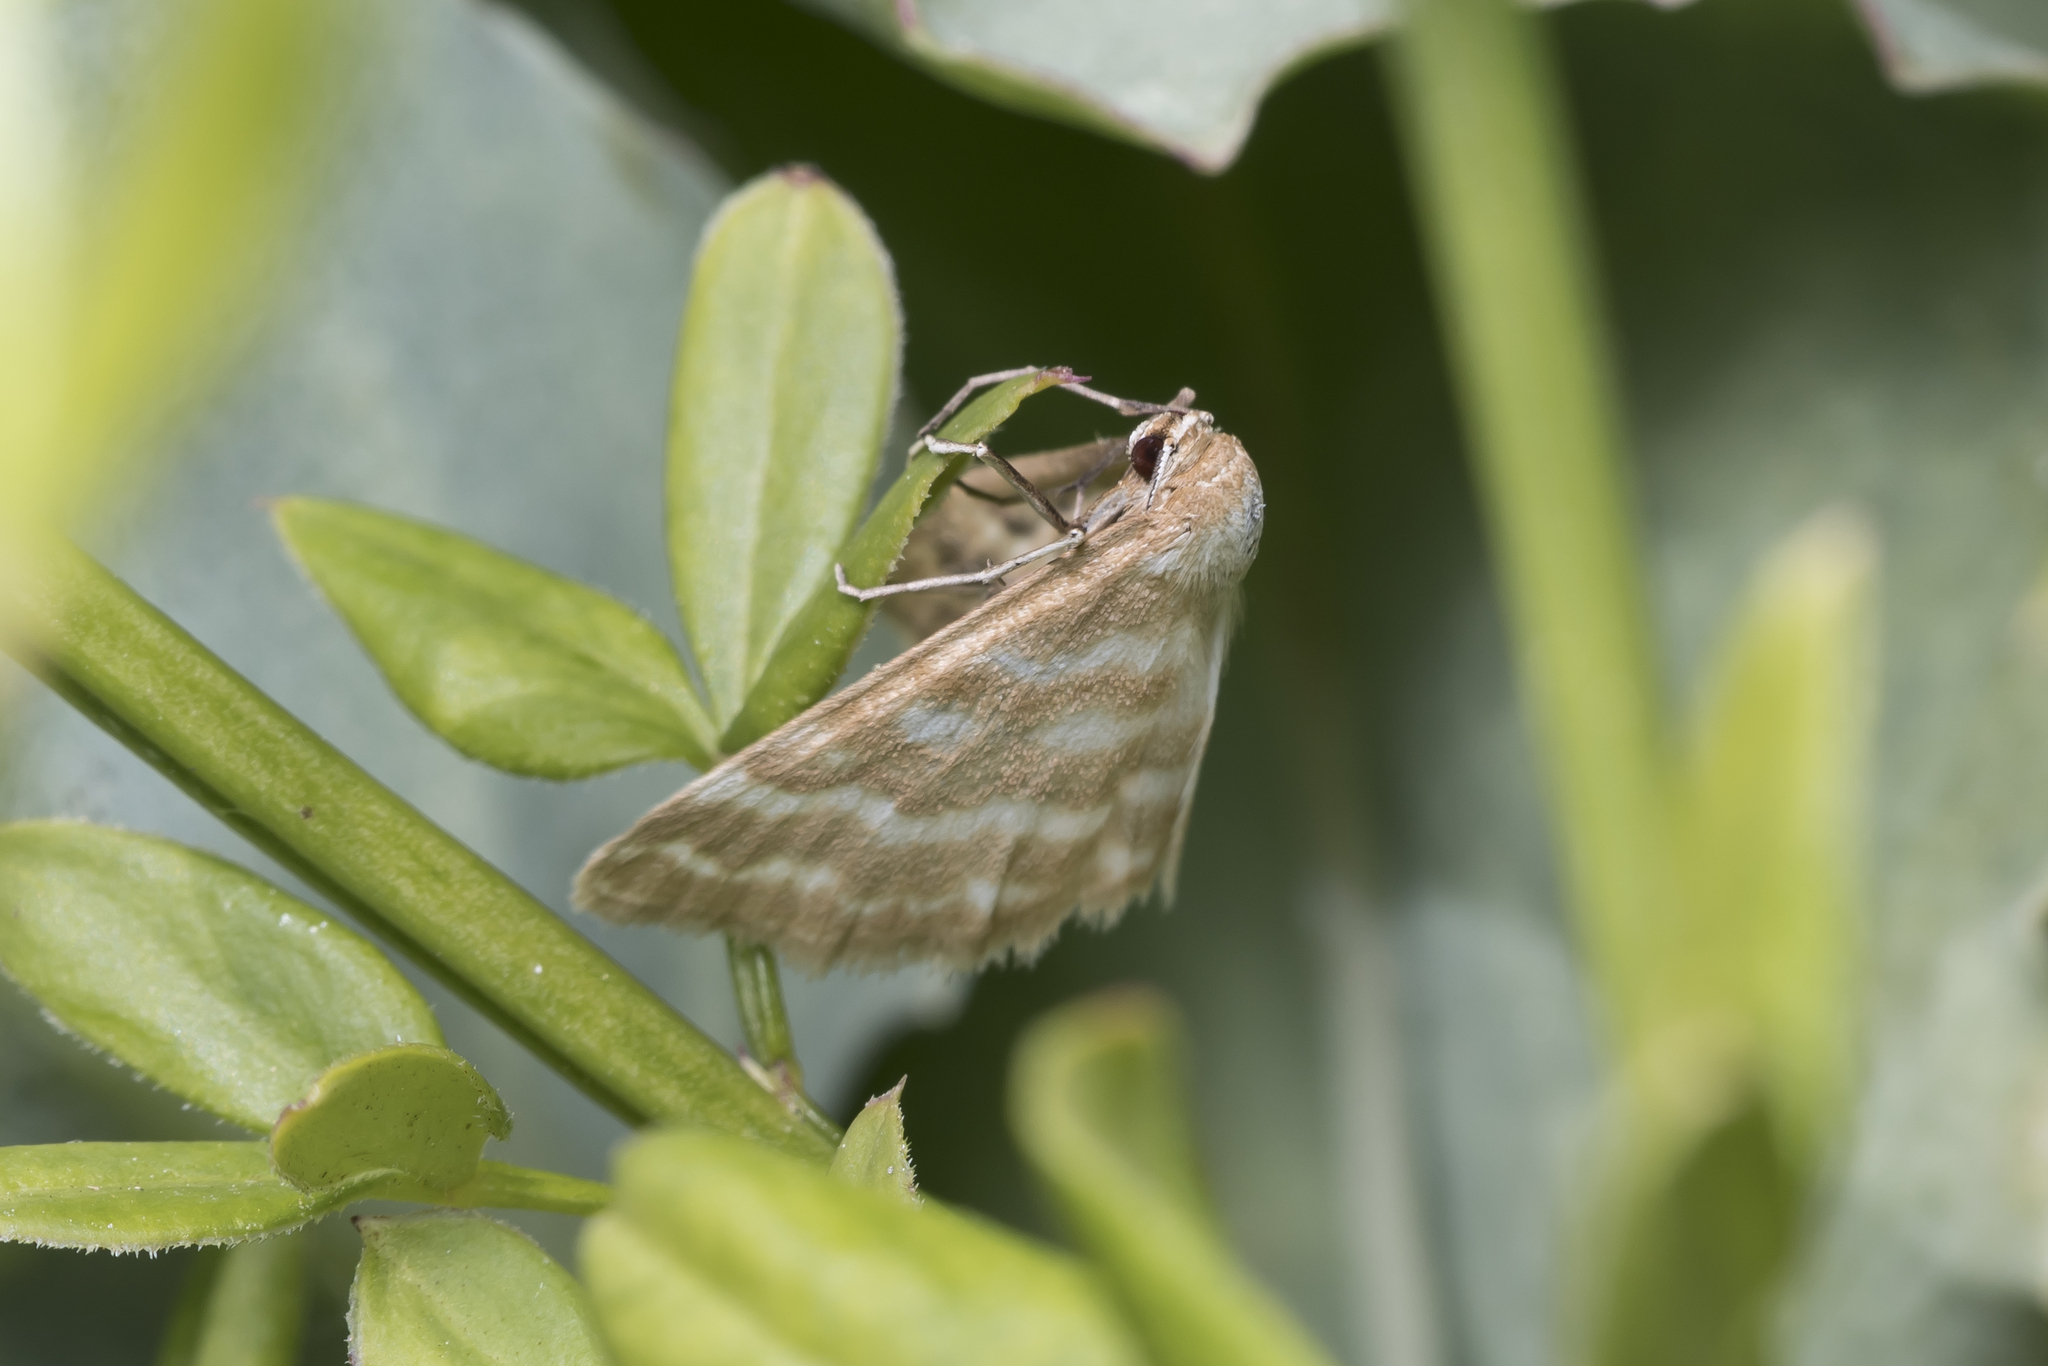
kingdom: Animalia
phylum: Arthropoda
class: Insecta
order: Lepidoptera
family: Geometridae
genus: Idaea
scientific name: Idaea sericeata
